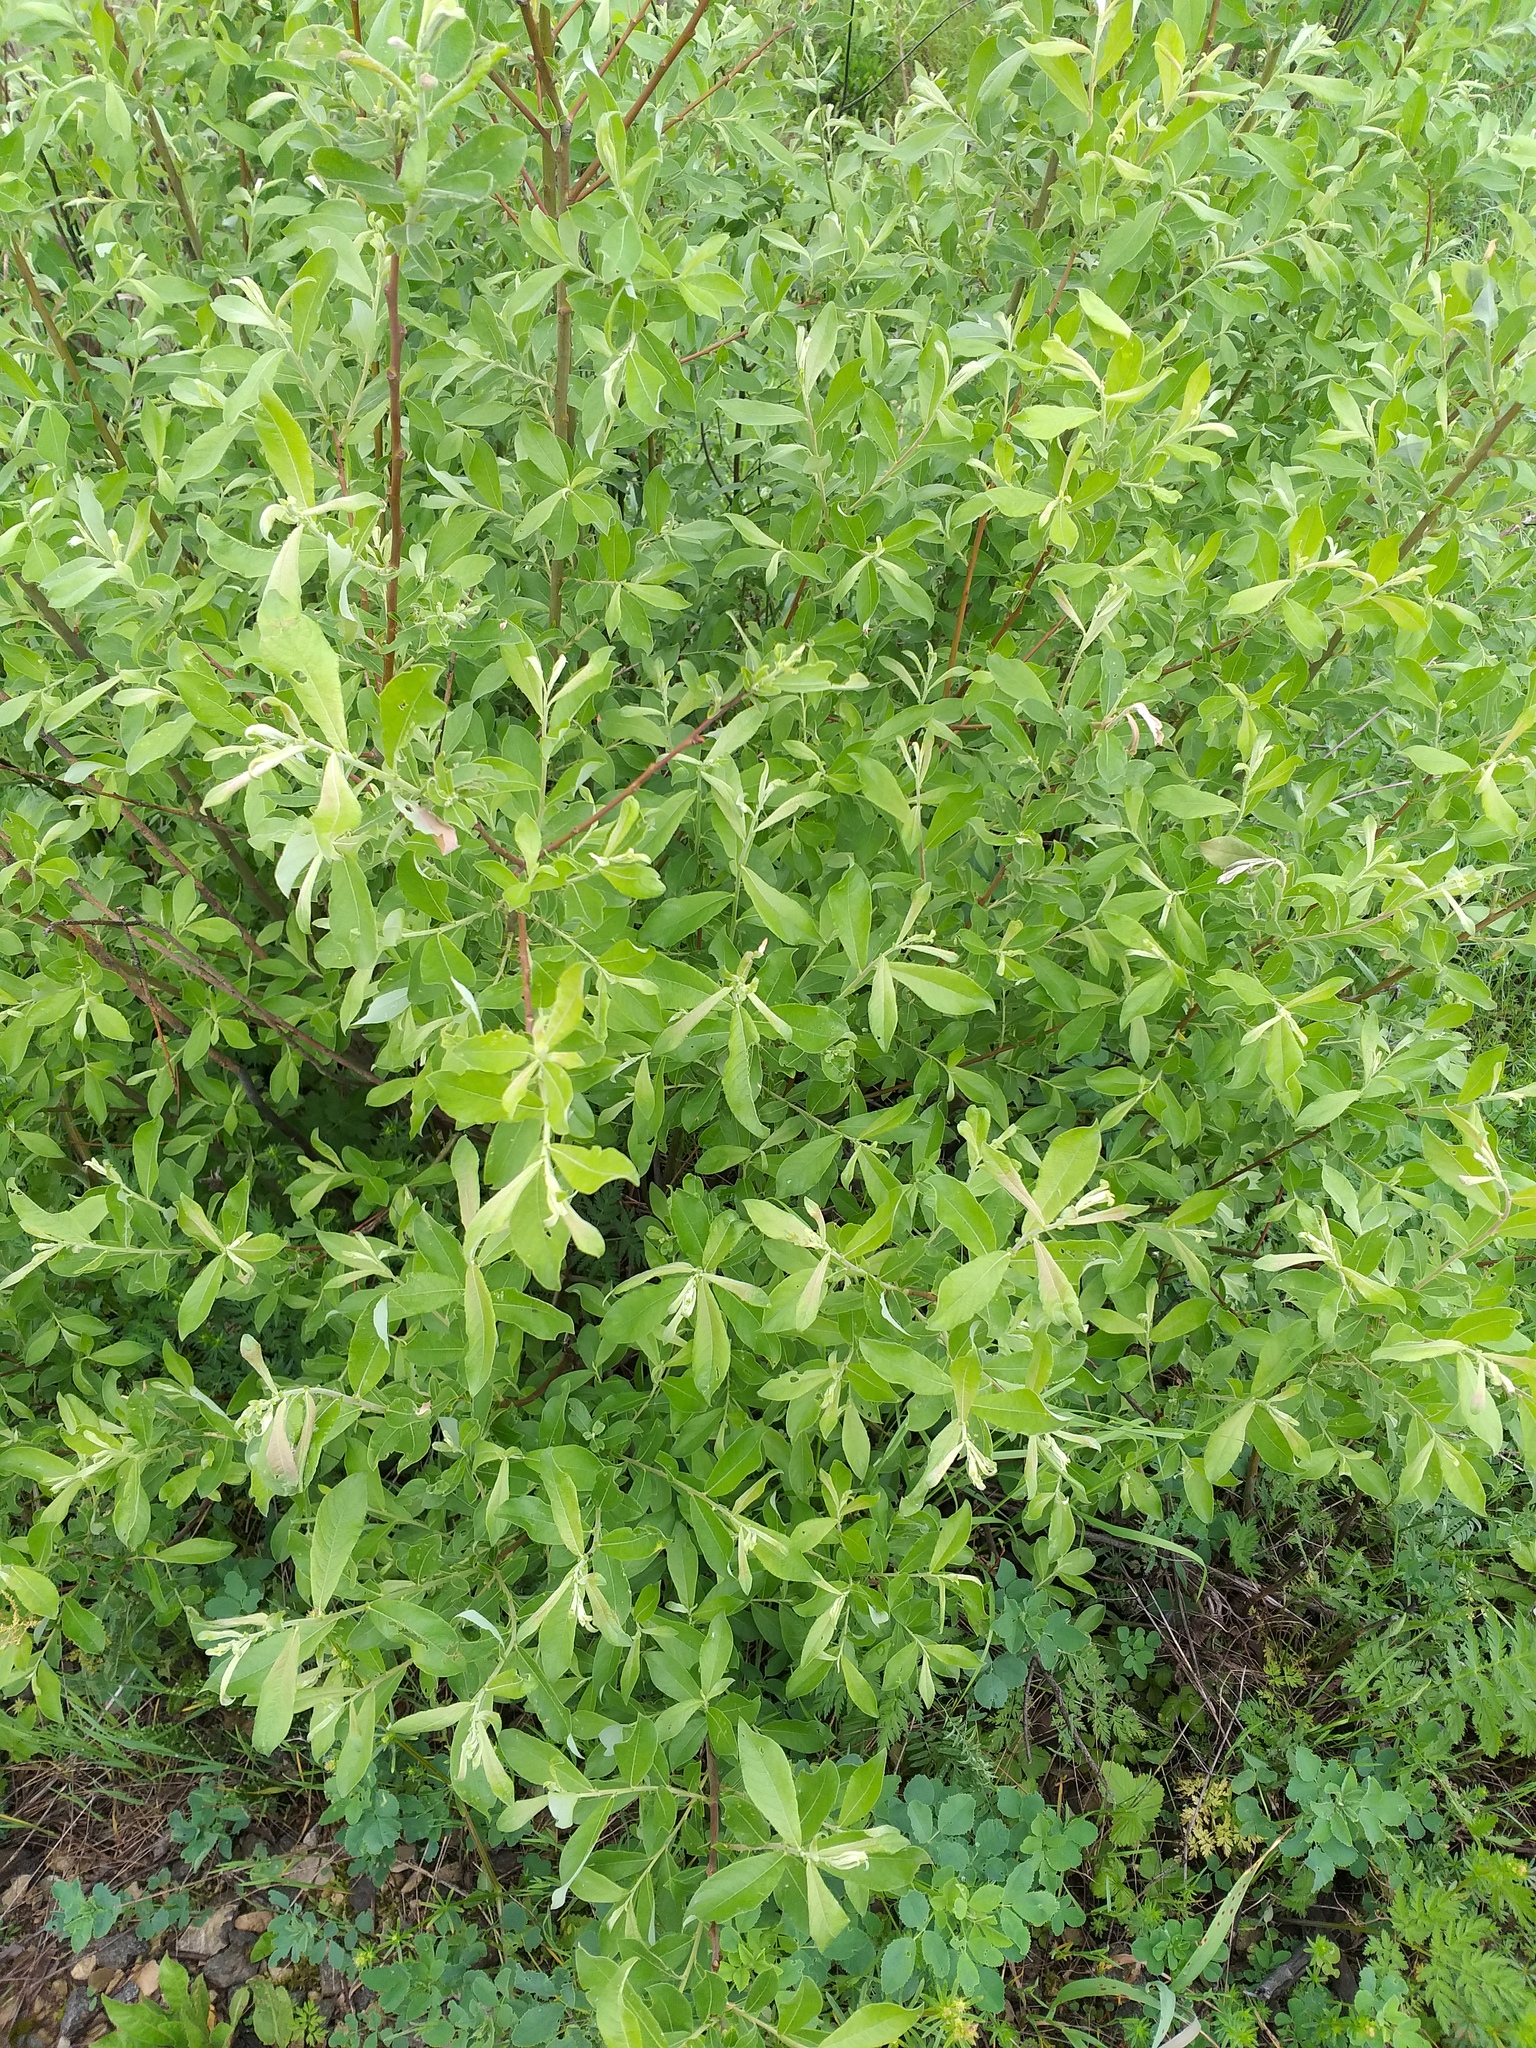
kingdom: Plantae
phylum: Tracheophyta
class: Magnoliopsida
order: Malpighiales
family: Salicaceae
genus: Salix
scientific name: Salix cinerea
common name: Common sallow
